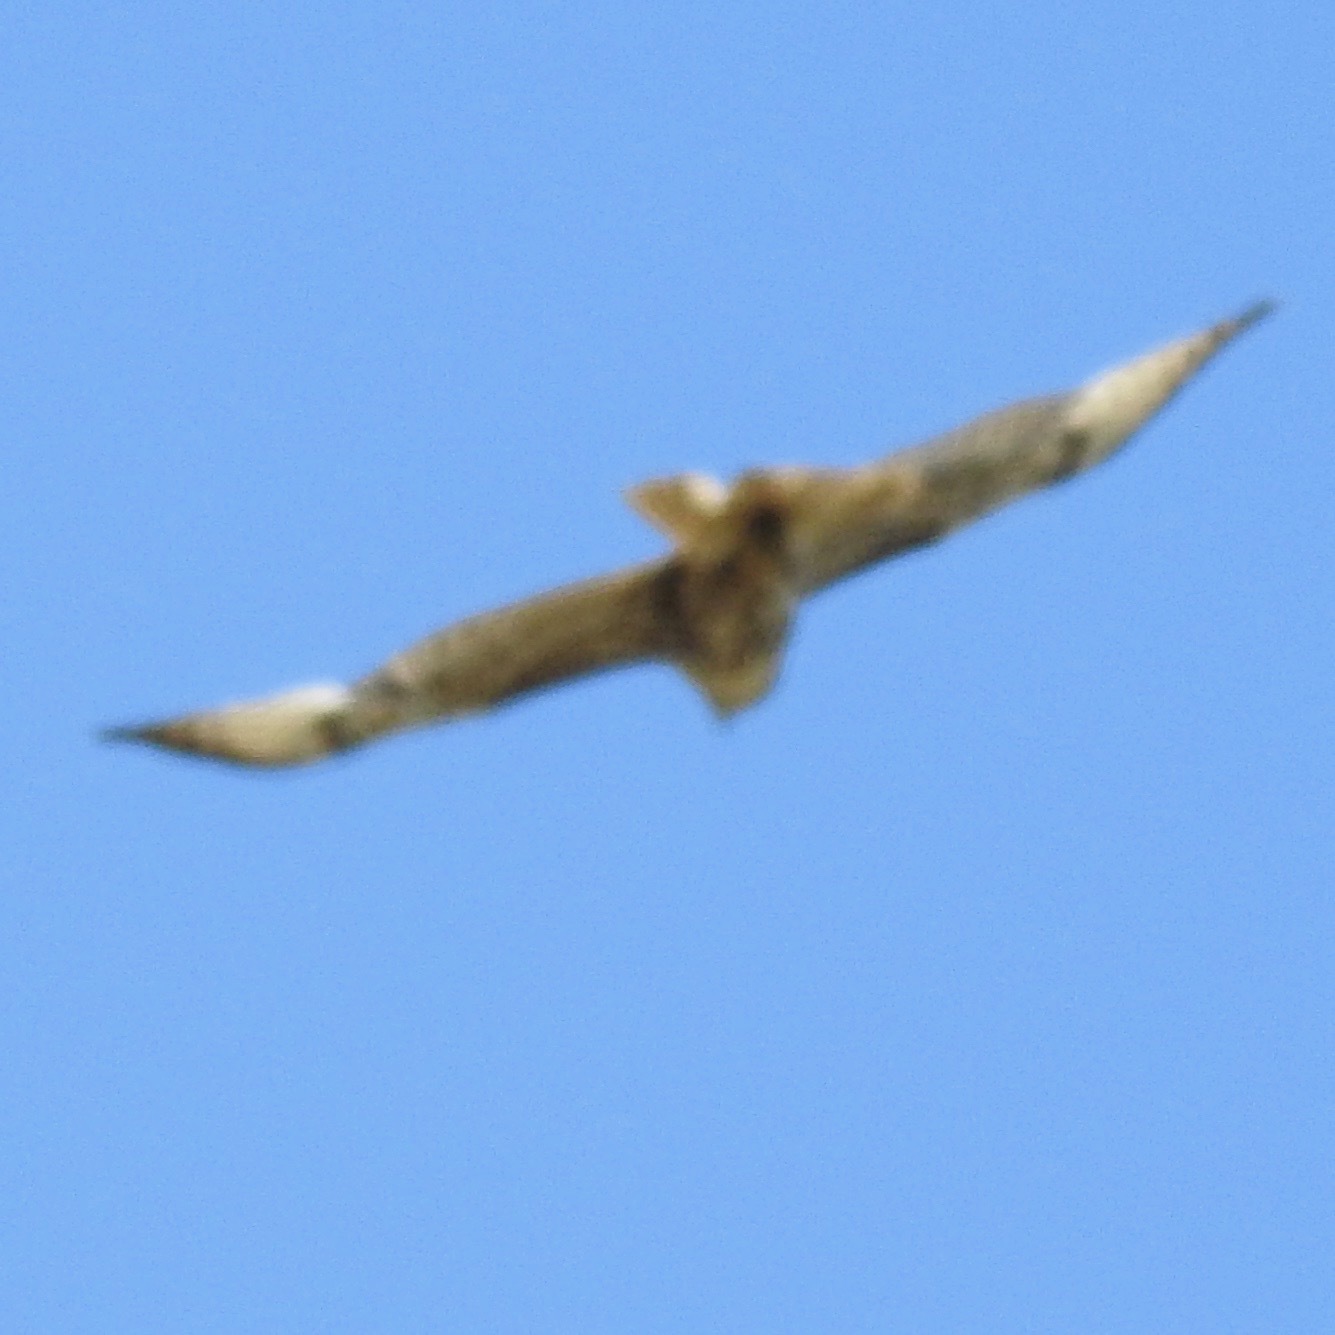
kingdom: Animalia
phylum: Chordata
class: Aves
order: Accipitriformes
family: Accipitridae
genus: Buteo
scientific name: Buteo jamaicensis
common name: Red-tailed hawk
